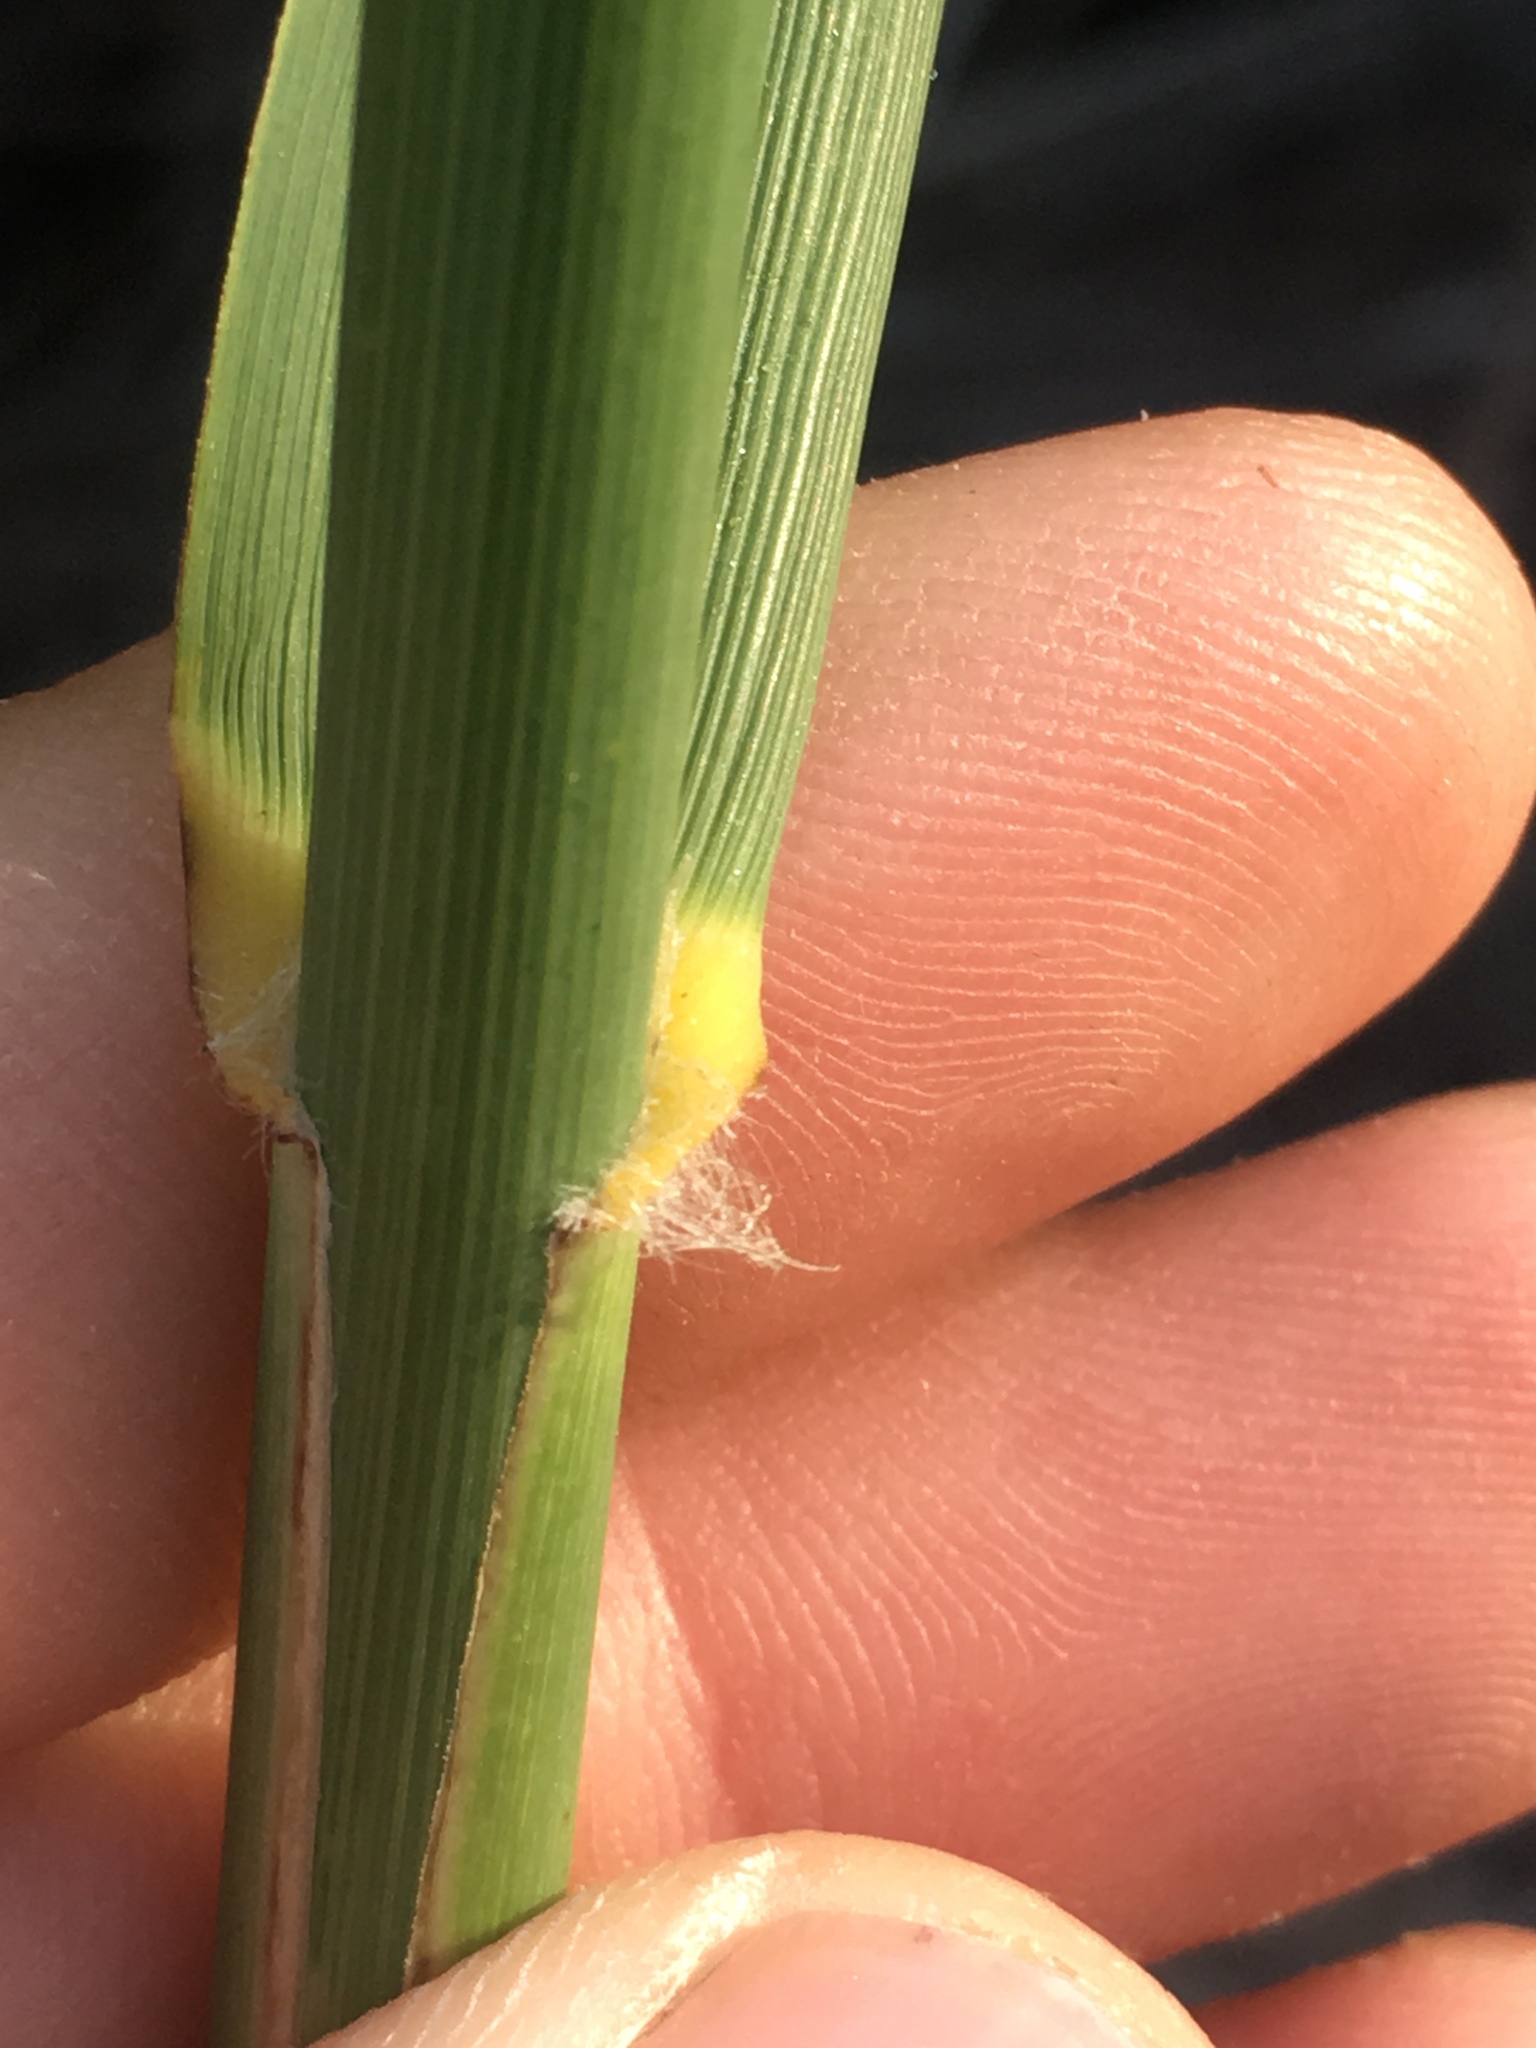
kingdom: Plantae
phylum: Tracheophyta
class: Liliopsida
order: Poales
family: Poaceae
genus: Phragmites
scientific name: Phragmites australis
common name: Common reed
